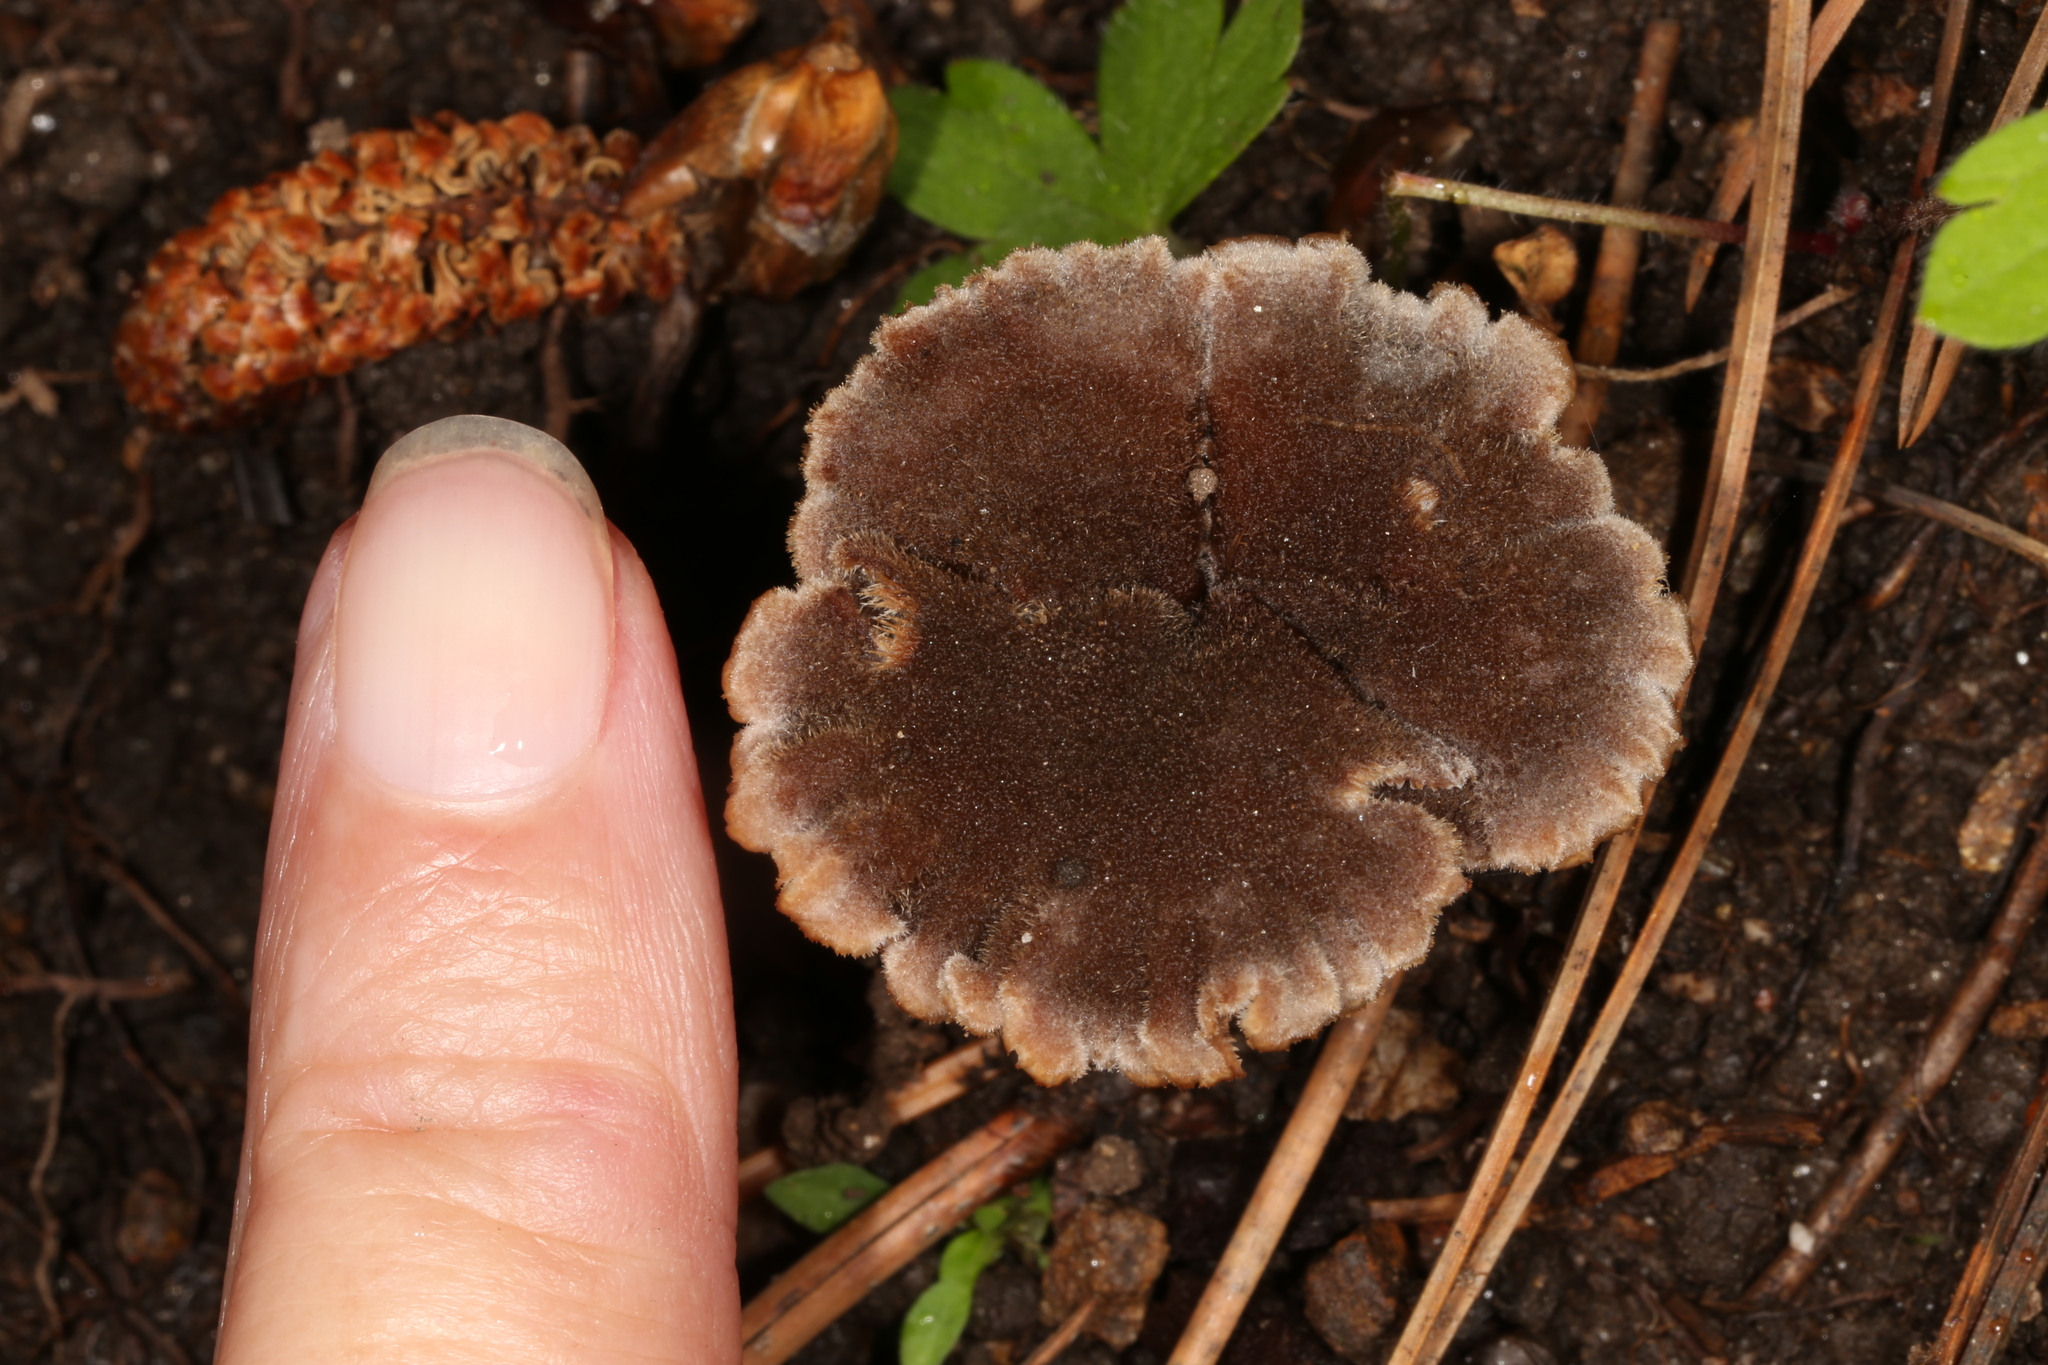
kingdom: Fungi
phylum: Basidiomycota
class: Agaricomycetes
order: Russulales
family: Auriscalpiaceae
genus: Auriscalpium
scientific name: Auriscalpium vulgare
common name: Earpick fungus
